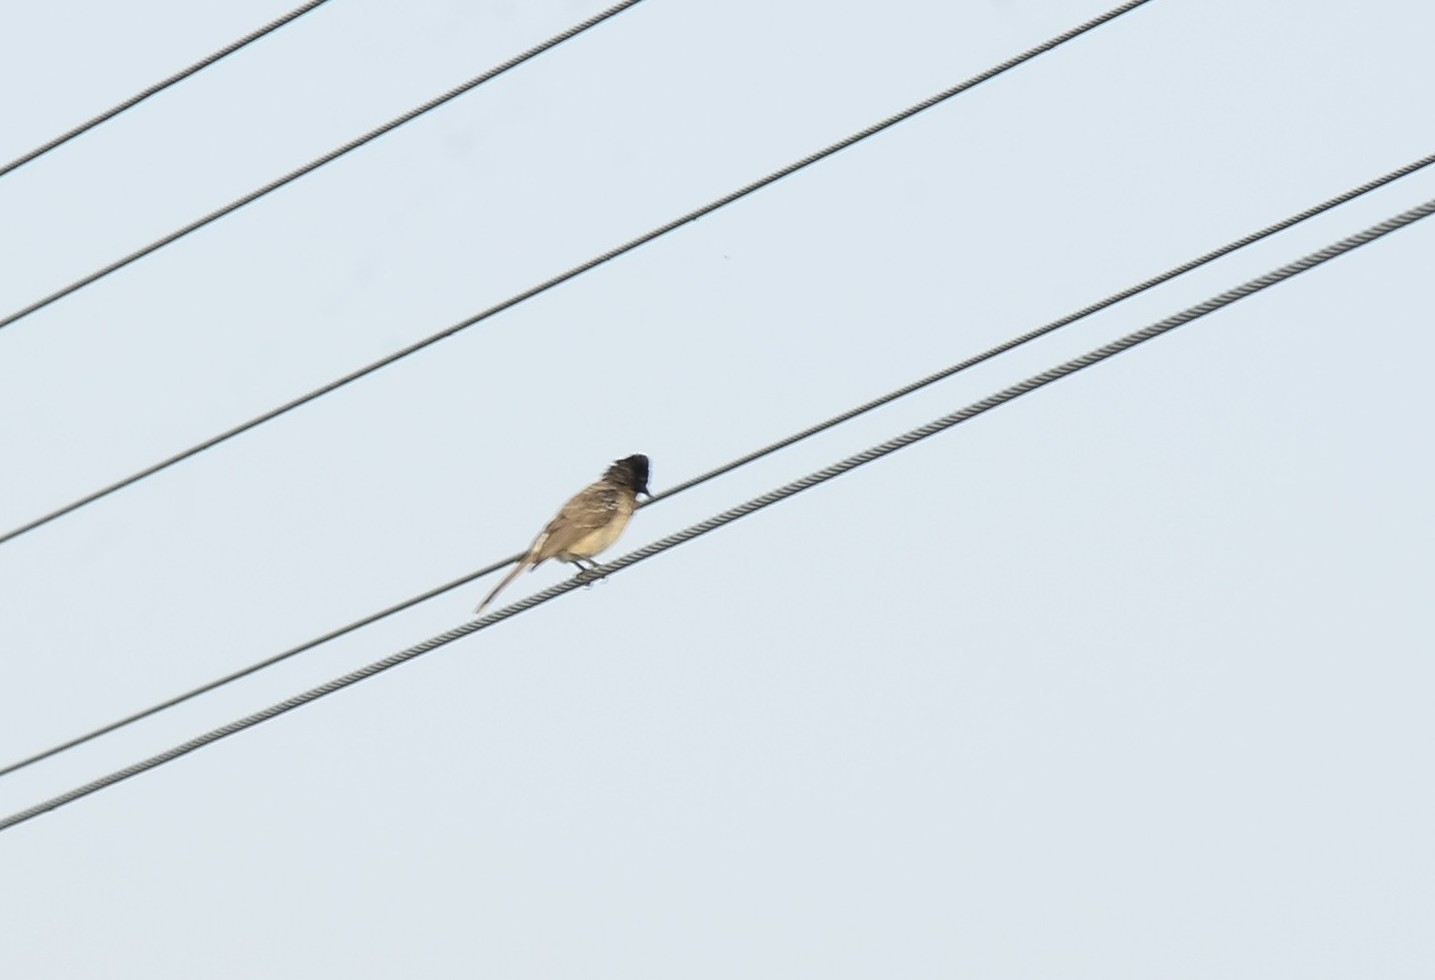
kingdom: Animalia
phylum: Chordata
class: Aves
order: Passeriformes
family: Pycnonotidae
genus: Pycnonotus
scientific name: Pycnonotus cafer
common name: Red-vented bulbul
